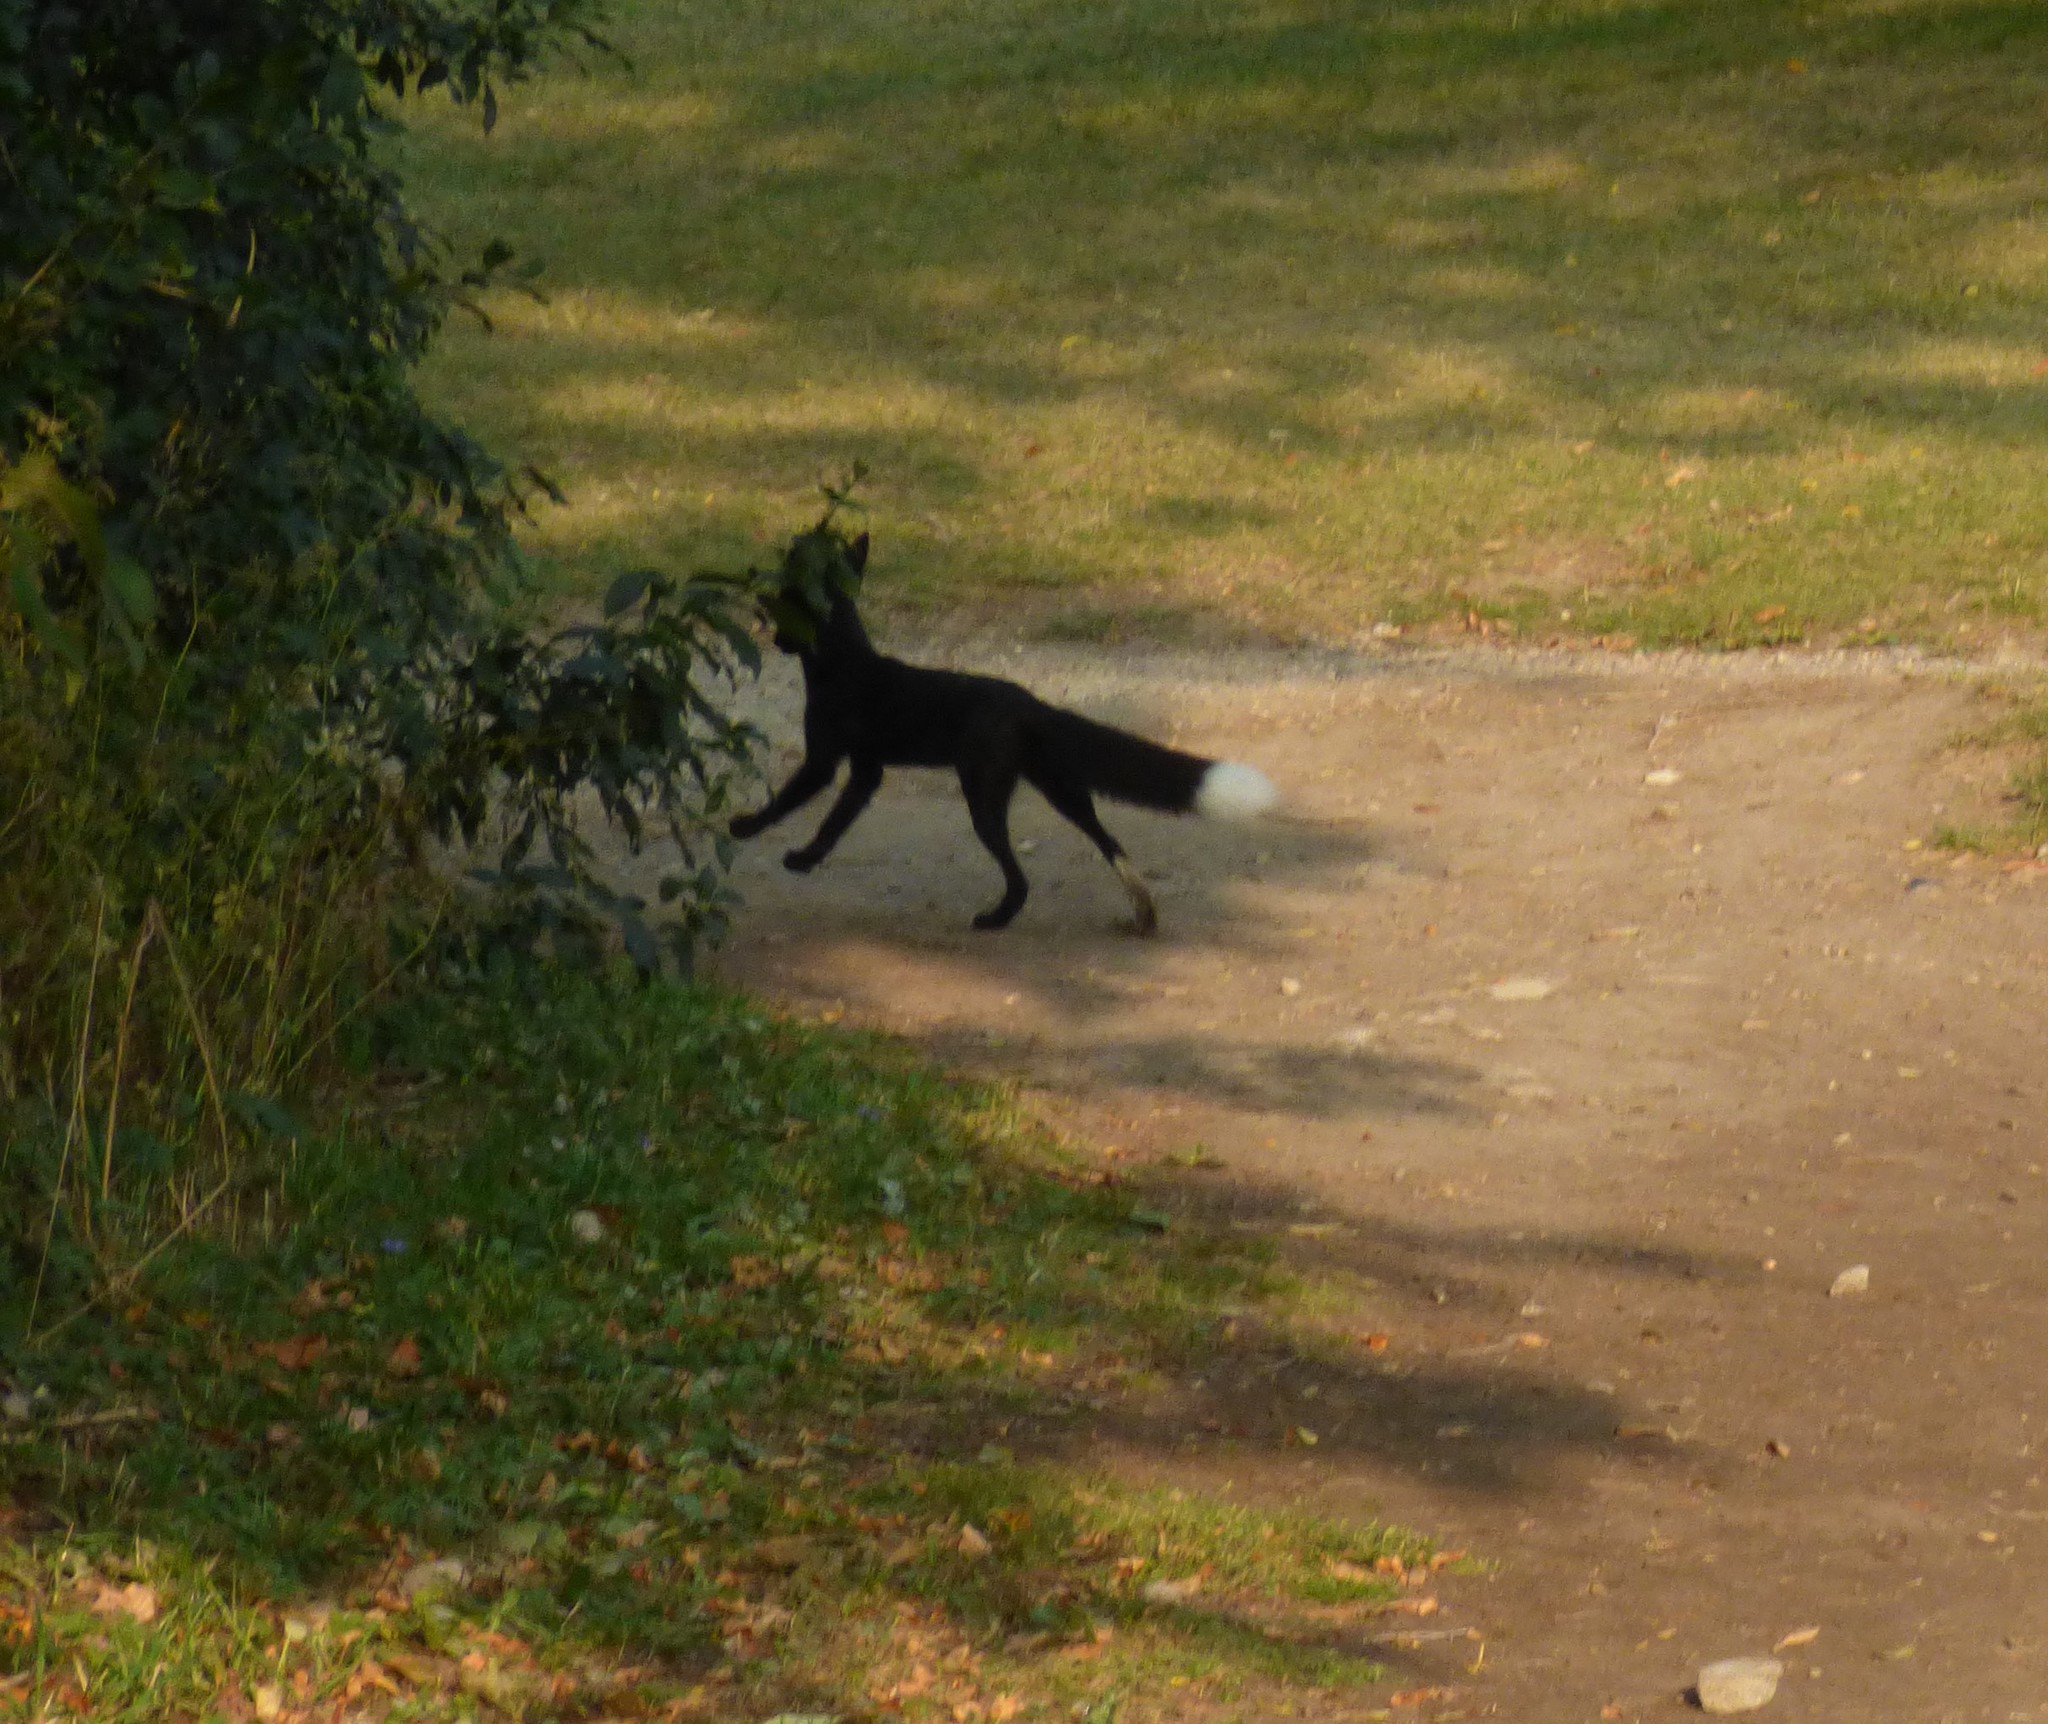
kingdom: Animalia
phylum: Chordata
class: Mammalia
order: Carnivora
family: Canidae
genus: Vulpes
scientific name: Vulpes vulpes
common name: Red fox
